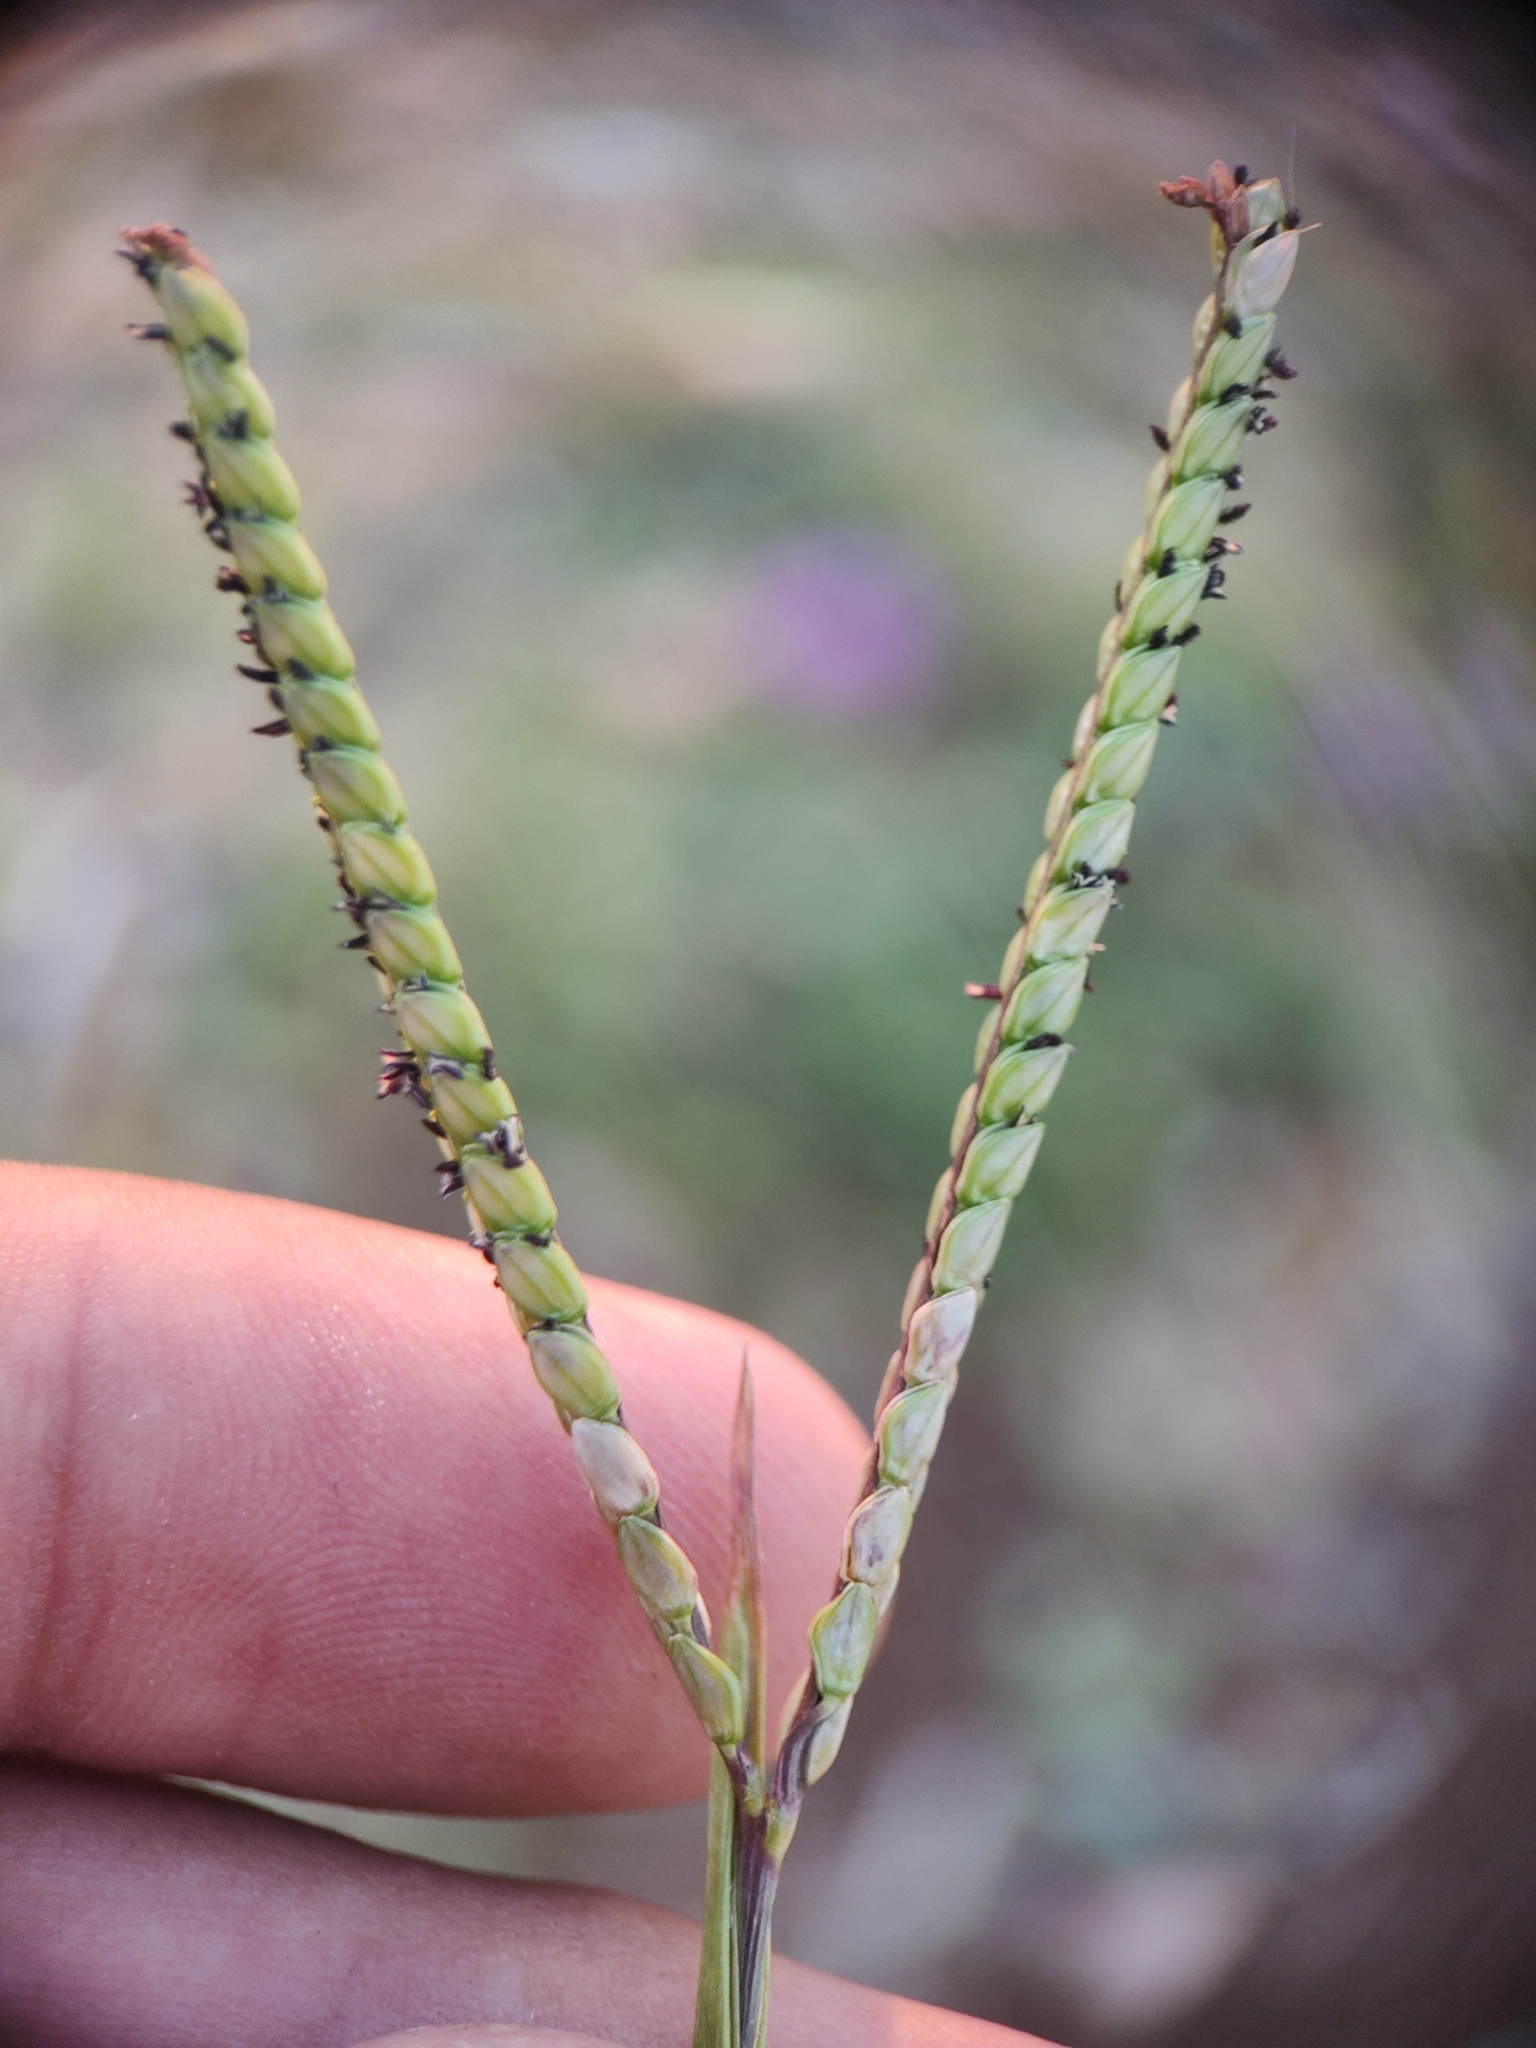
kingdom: Plantae
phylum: Tracheophyta
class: Liliopsida
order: Poales
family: Poaceae
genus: Paspalum
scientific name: Paspalum notatum
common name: Bahiagrass
